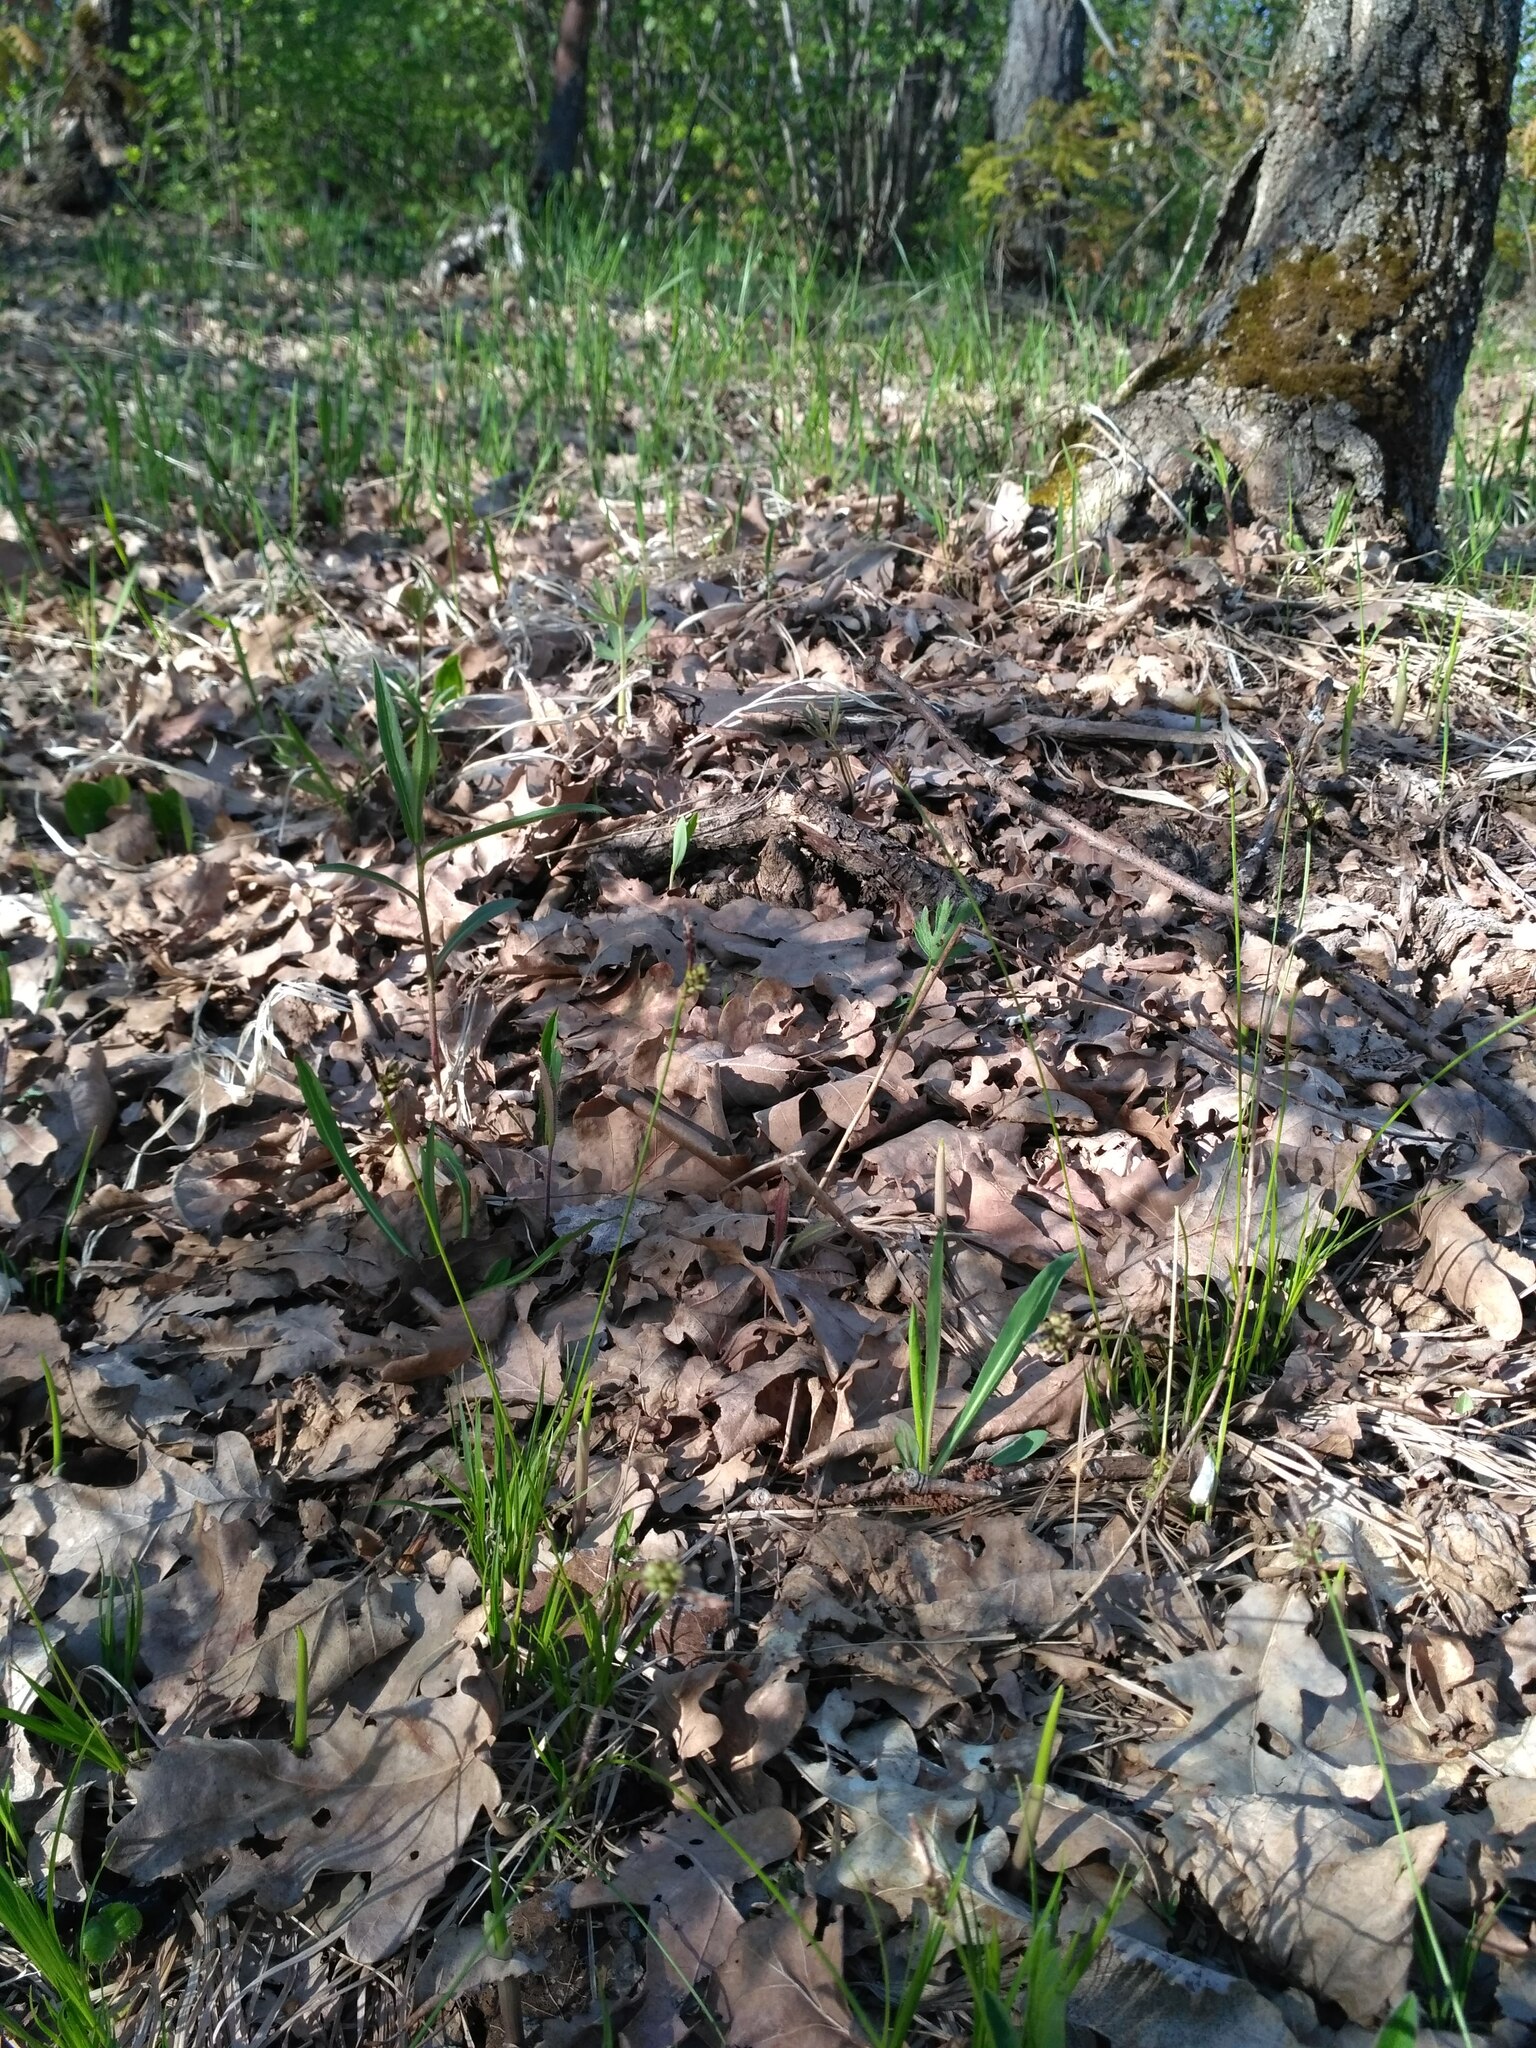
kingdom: Plantae
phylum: Tracheophyta
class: Liliopsida
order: Poales
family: Cyperaceae
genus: Carex
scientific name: Carex montana
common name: Soft-leaved sedge
